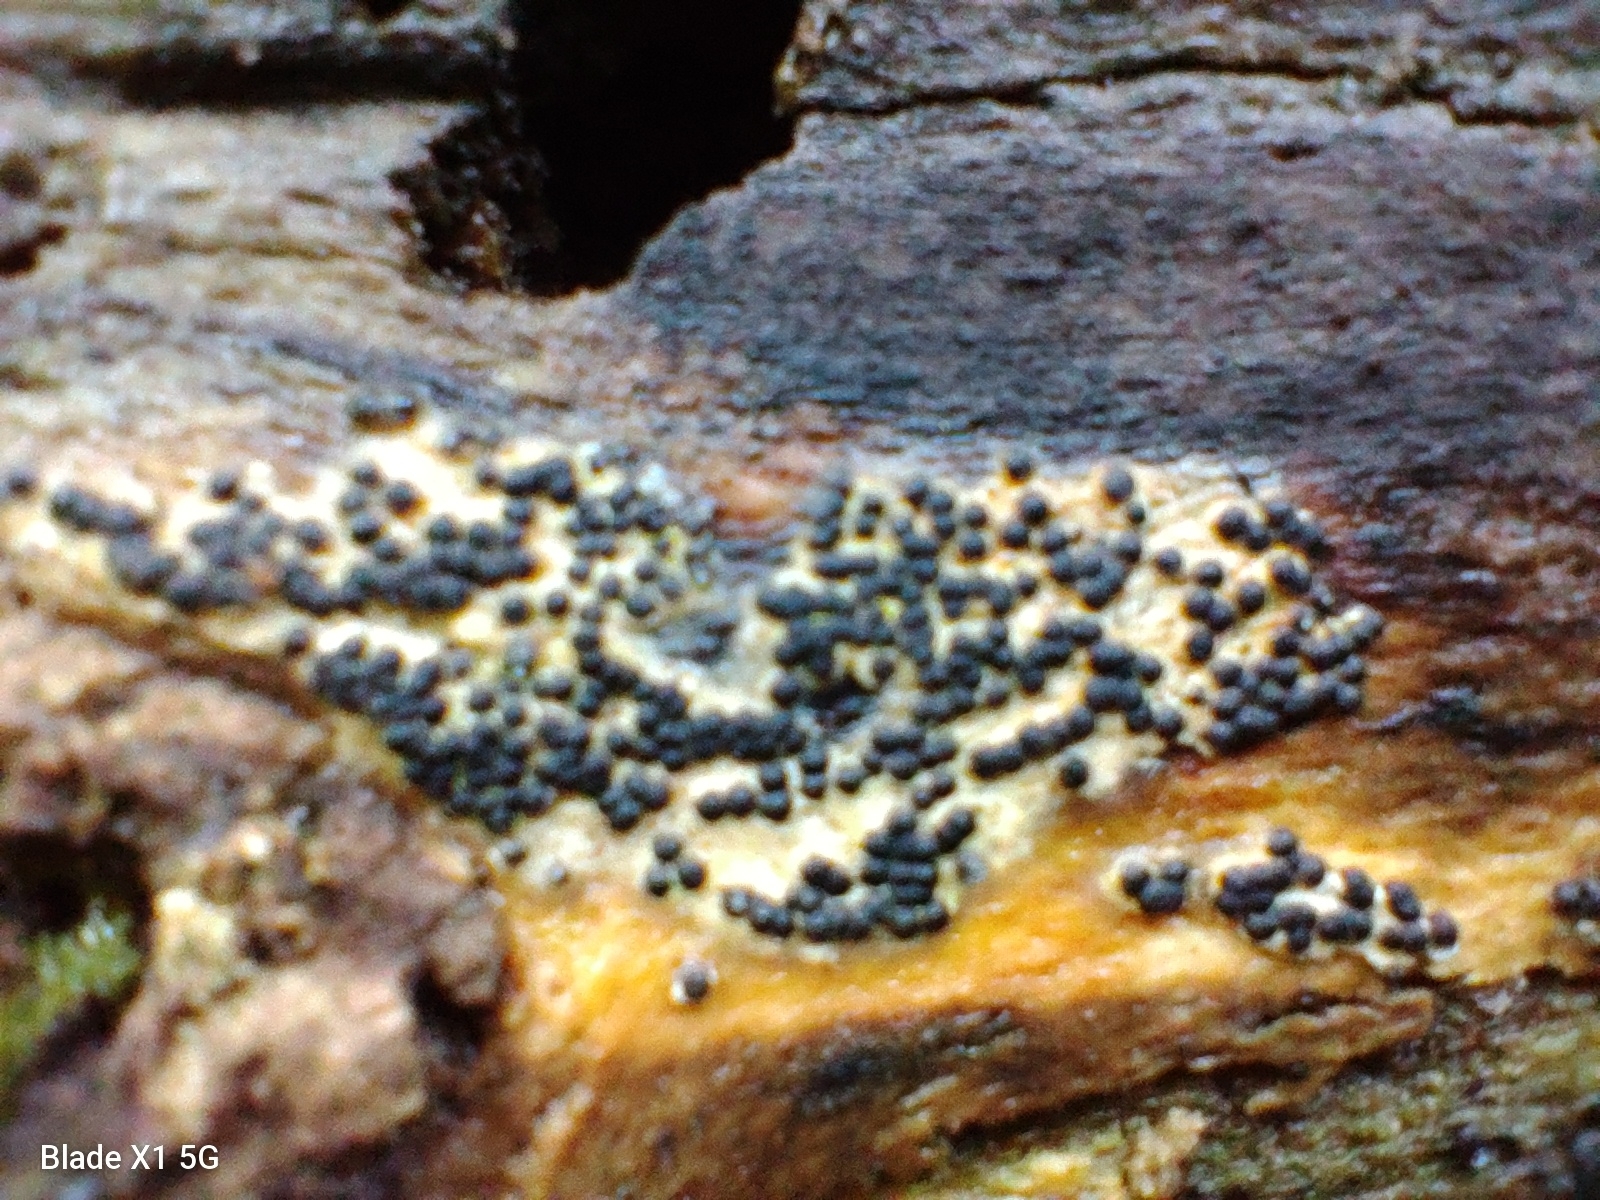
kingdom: Fungi
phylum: Ascomycota
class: Sordariomycetes
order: Xylariales
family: Xylariaceae
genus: Rosellinia
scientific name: Rosellinia subiculata
